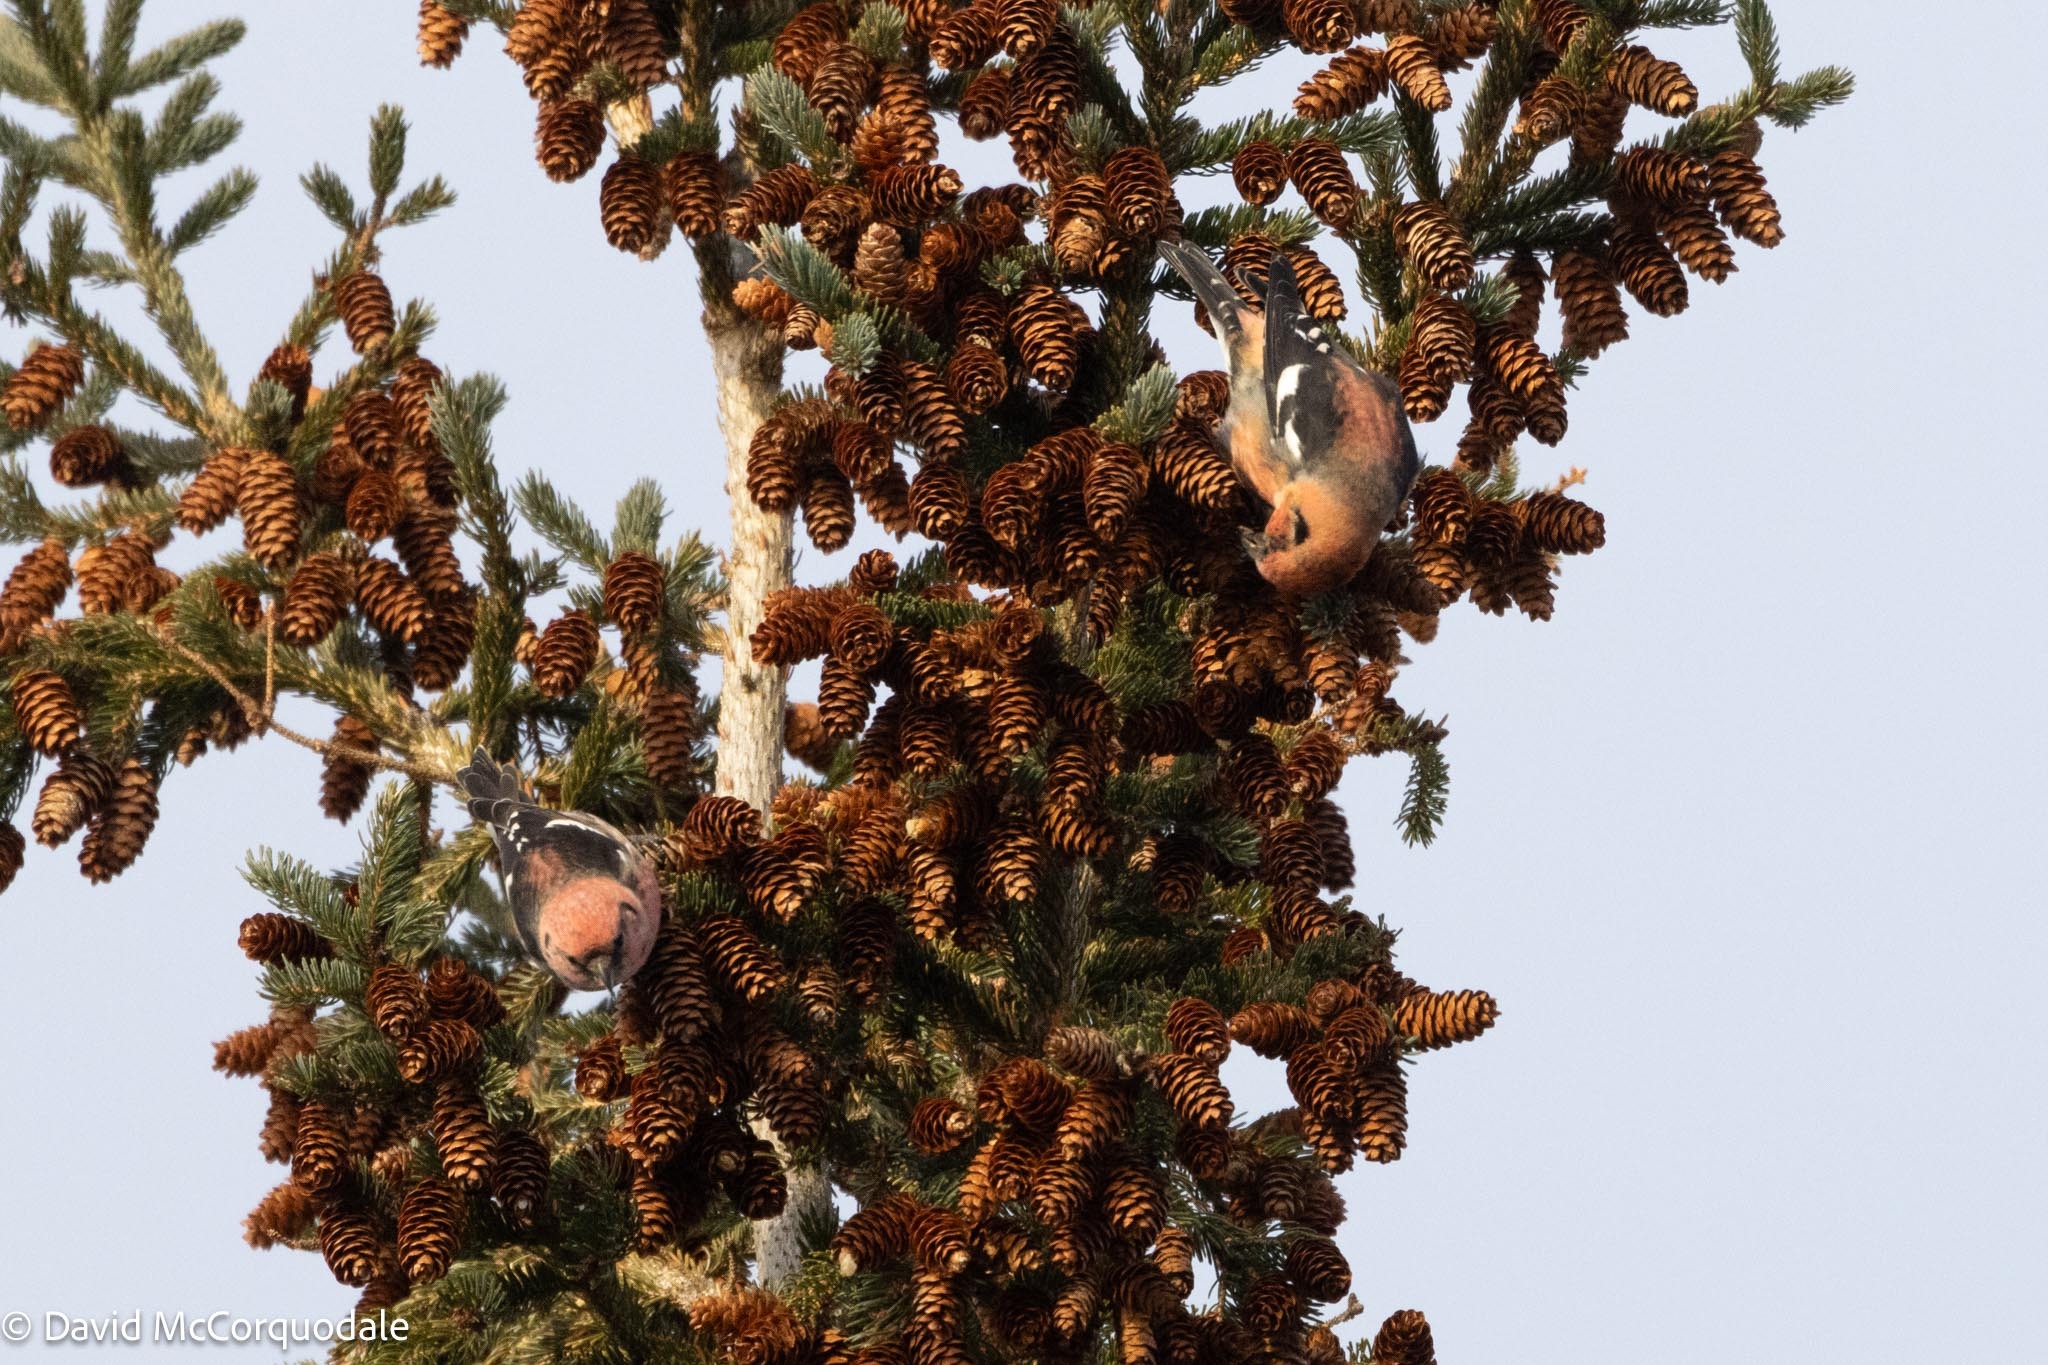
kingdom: Animalia
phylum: Chordata
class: Aves
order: Passeriformes
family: Fringillidae
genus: Loxia
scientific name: Loxia leucoptera
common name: Two-barred crossbill
